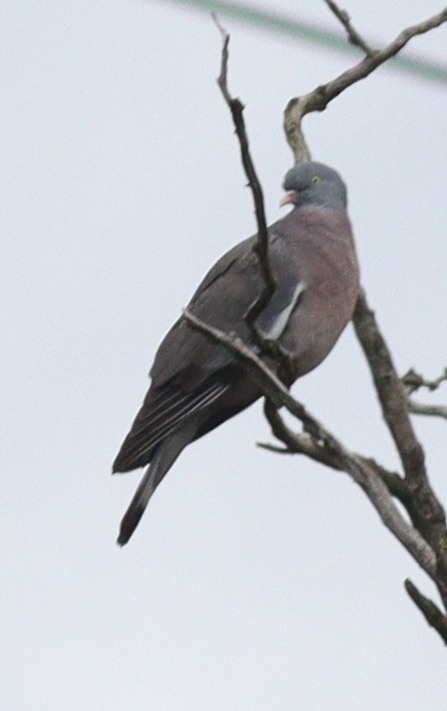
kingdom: Animalia
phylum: Chordata
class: Aves
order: Columbiformes
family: Columbidae
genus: Columba
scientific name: Columba palumbus
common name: Common wood pigeon
